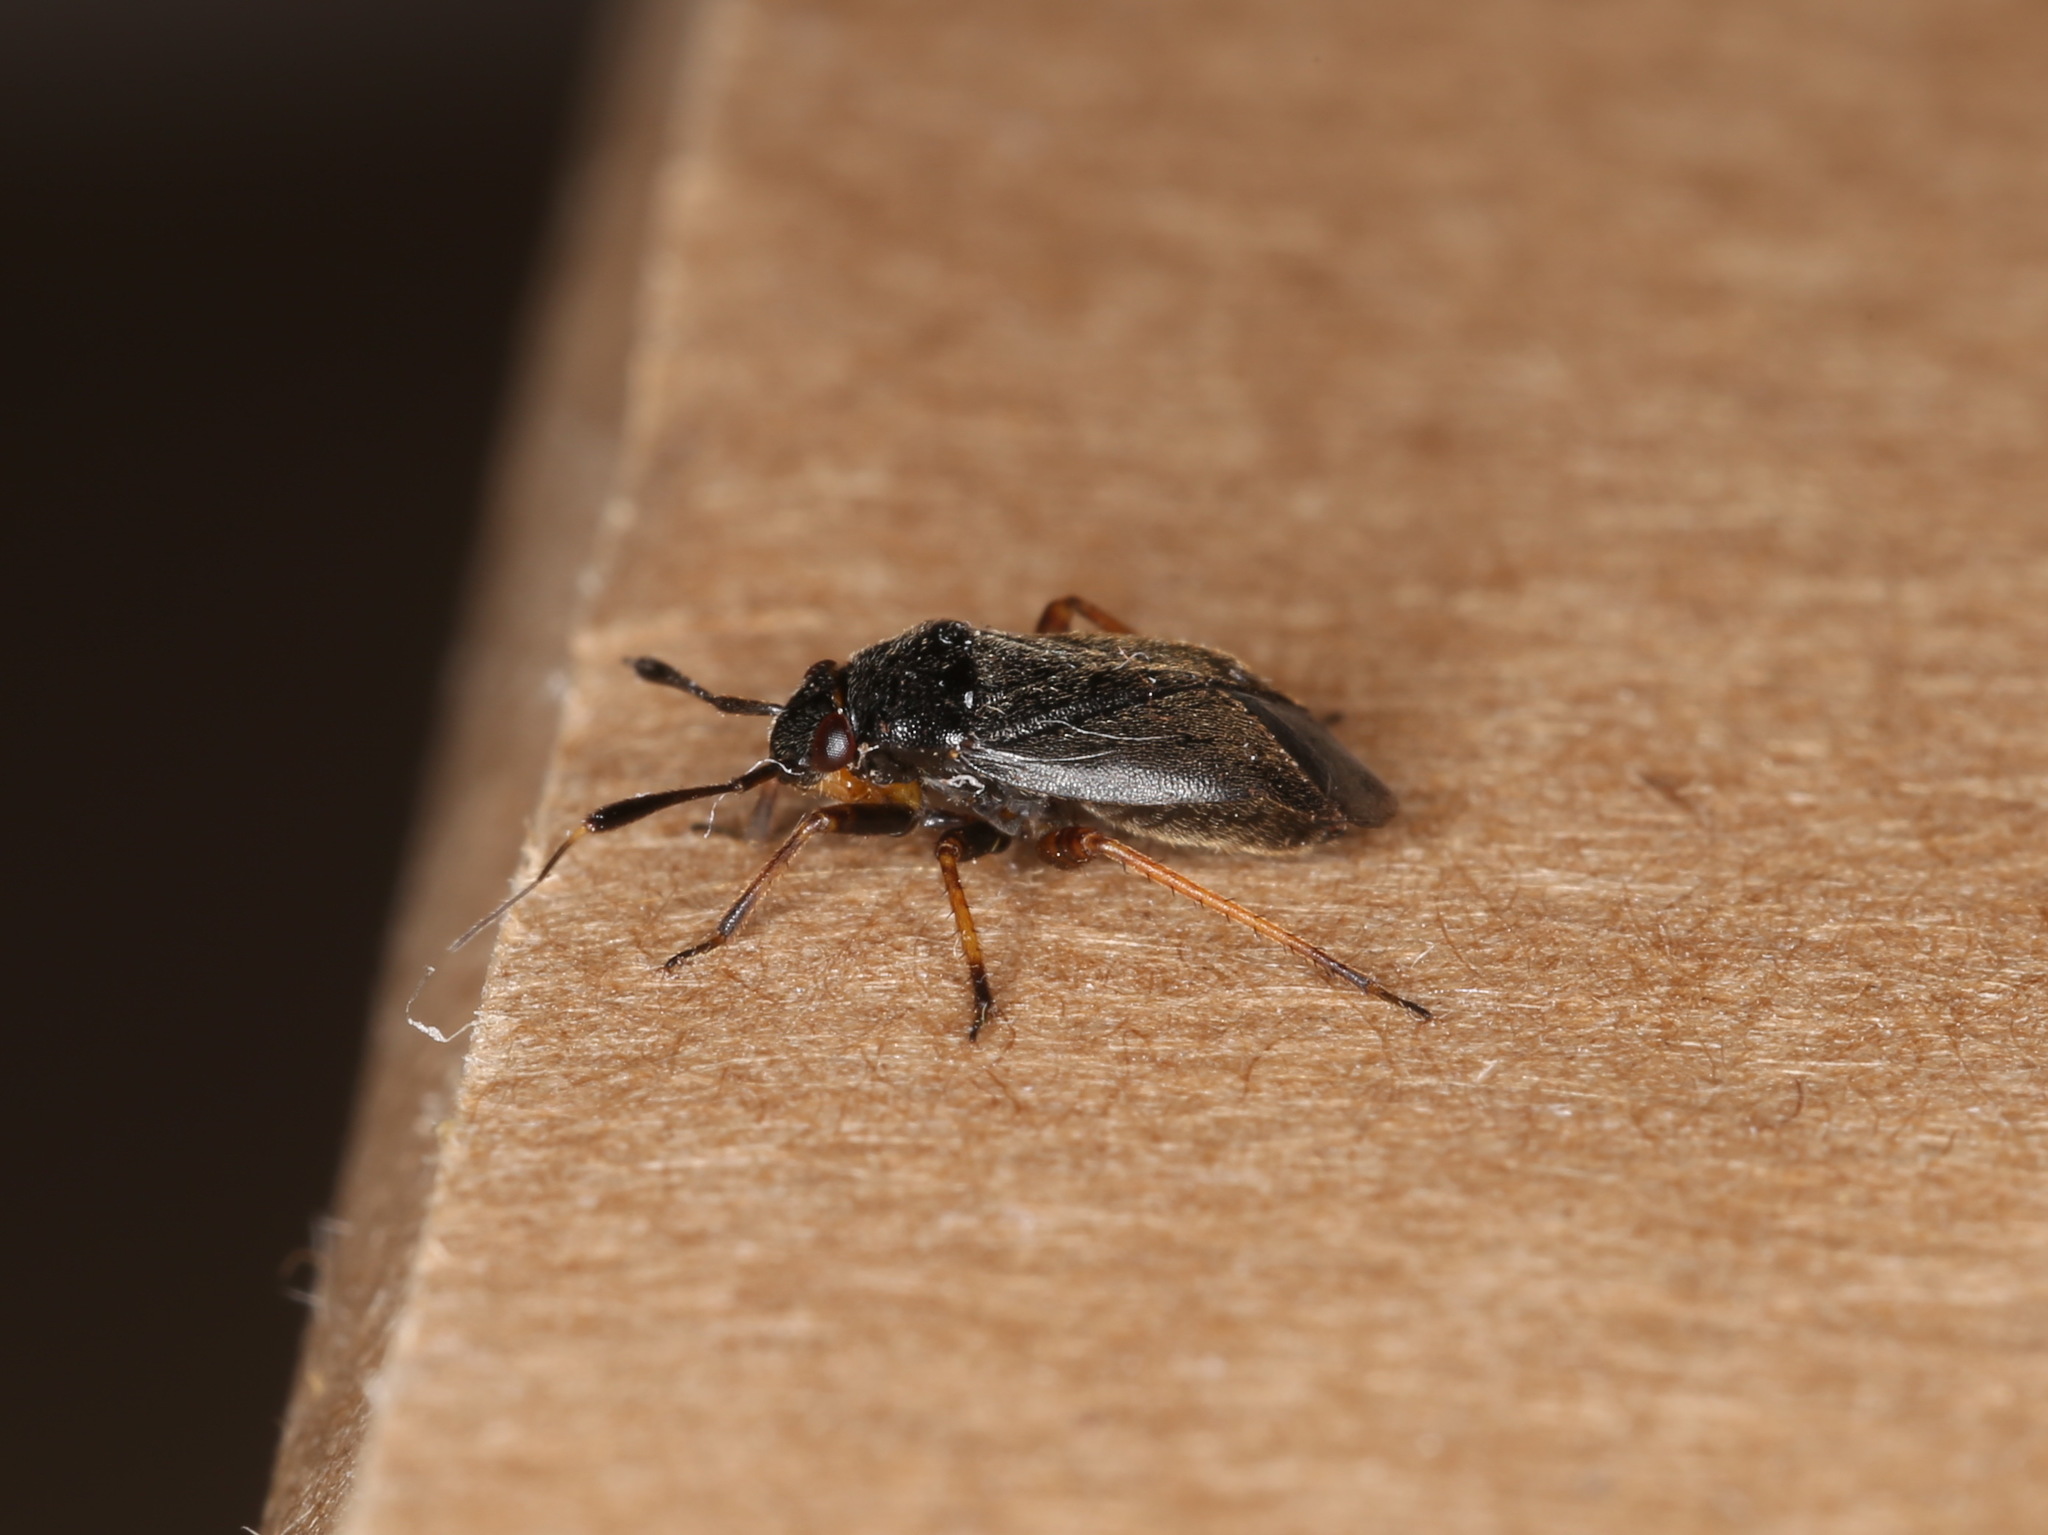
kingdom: Animalia
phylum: Arthropoda
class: Insecta
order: Hemiptera
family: Miridae
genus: Capsus
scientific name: Capsus ater
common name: Black plant bug
